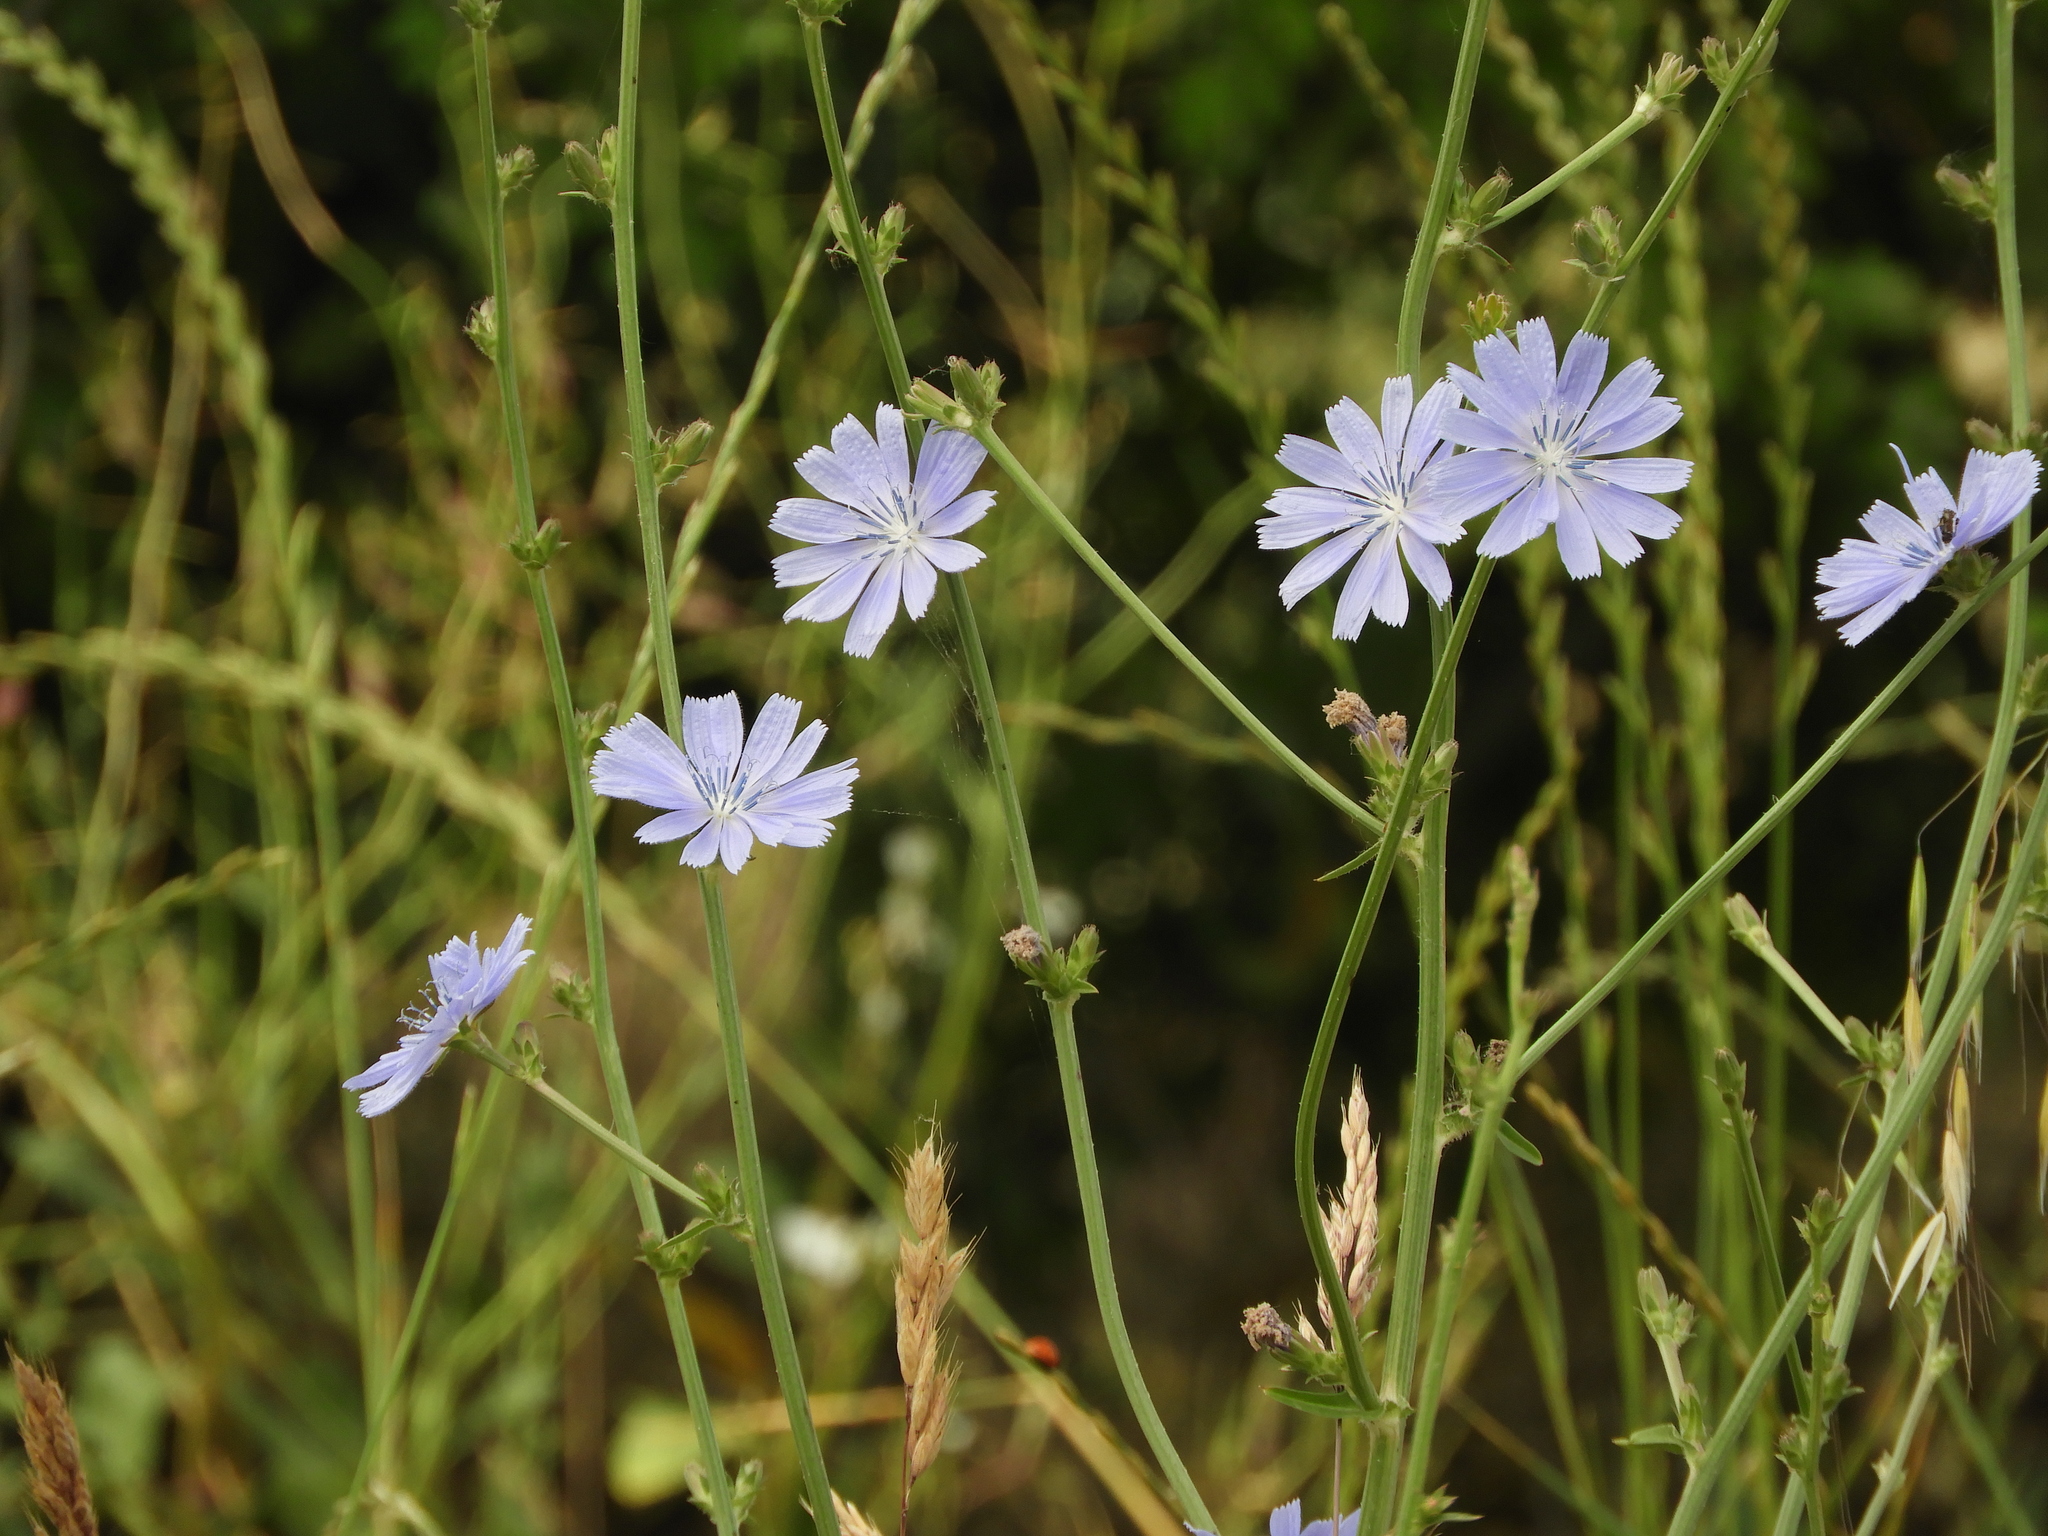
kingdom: Plantae
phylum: Tracheophyta
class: Magnoliopsida
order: Asterales
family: Asteraceae
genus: Cichorium
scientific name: Cichorium intybus
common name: Chicory
